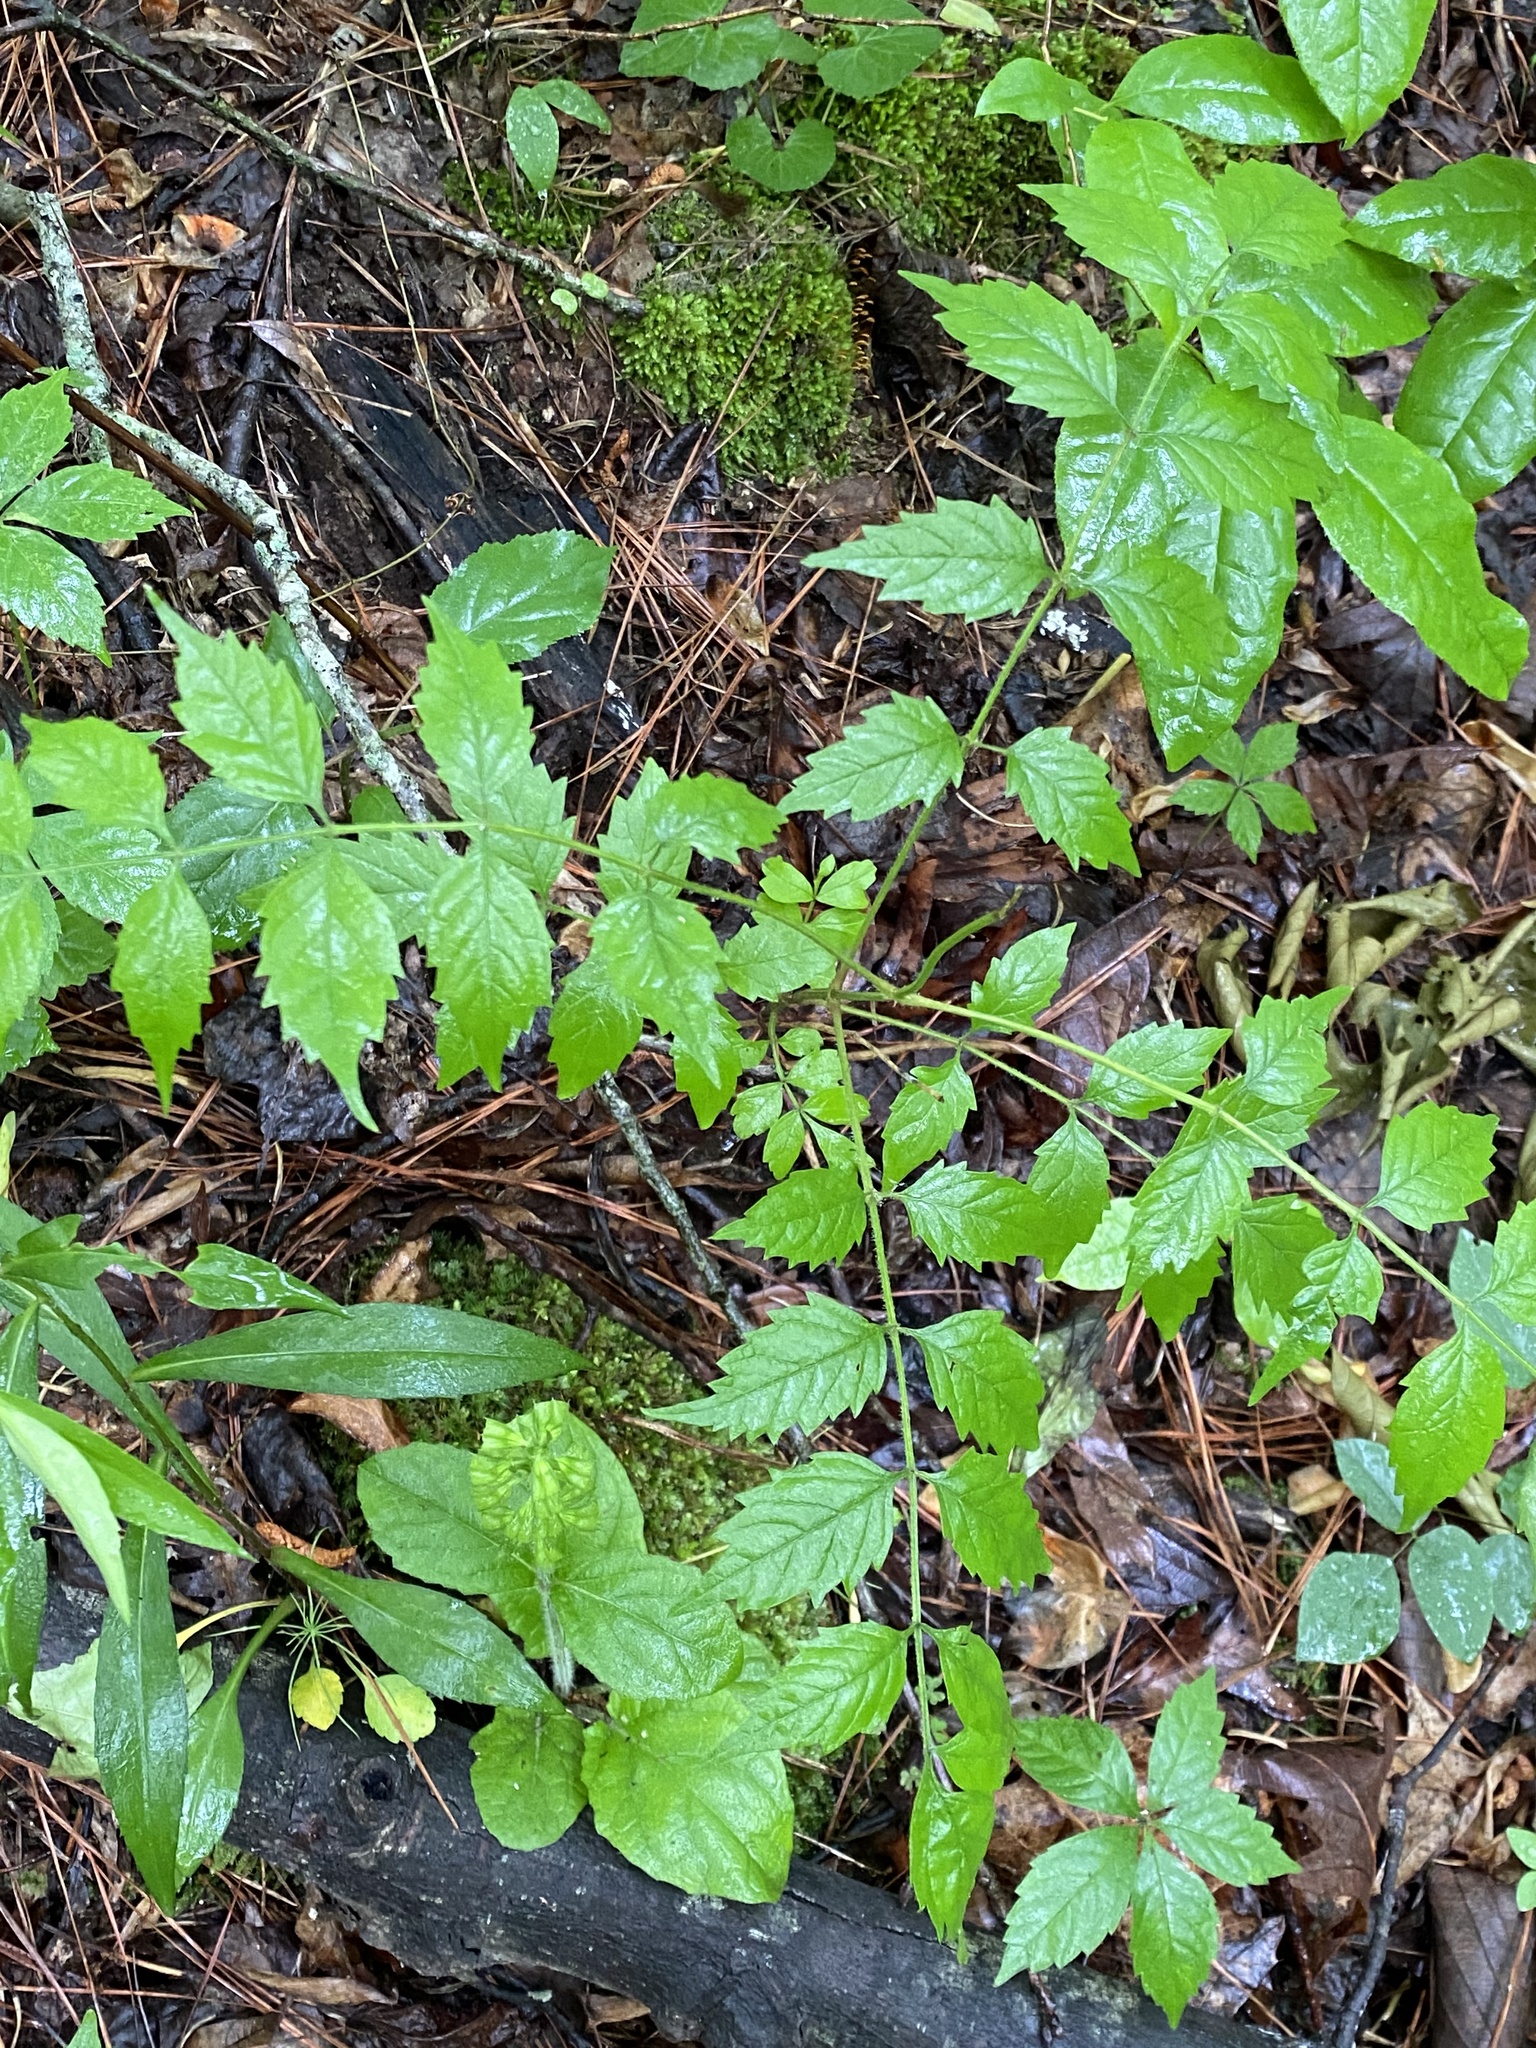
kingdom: Plantae
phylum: Tracheophyta
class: Magnoliopsida
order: Lamiales
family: Bignoniaceae
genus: Campsis
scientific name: Campsis radicans
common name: Trumpet-creeper
